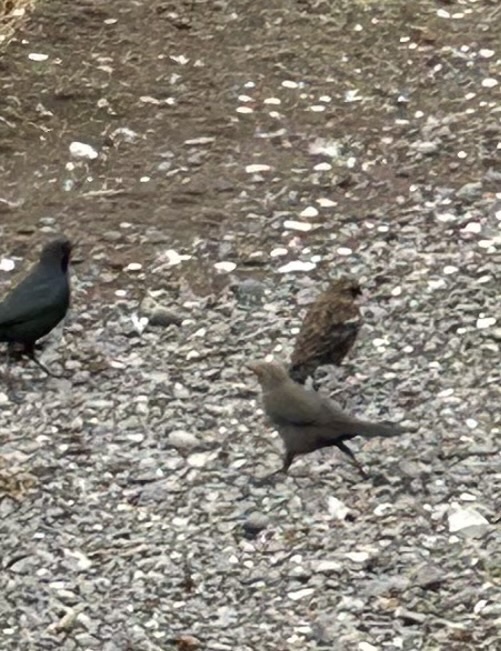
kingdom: Animalia
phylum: Chordata
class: Aves
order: Passeriformes
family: Icteridae
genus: Agelaius
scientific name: Agelaius phoeniceus
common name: Red-winged blackbird
